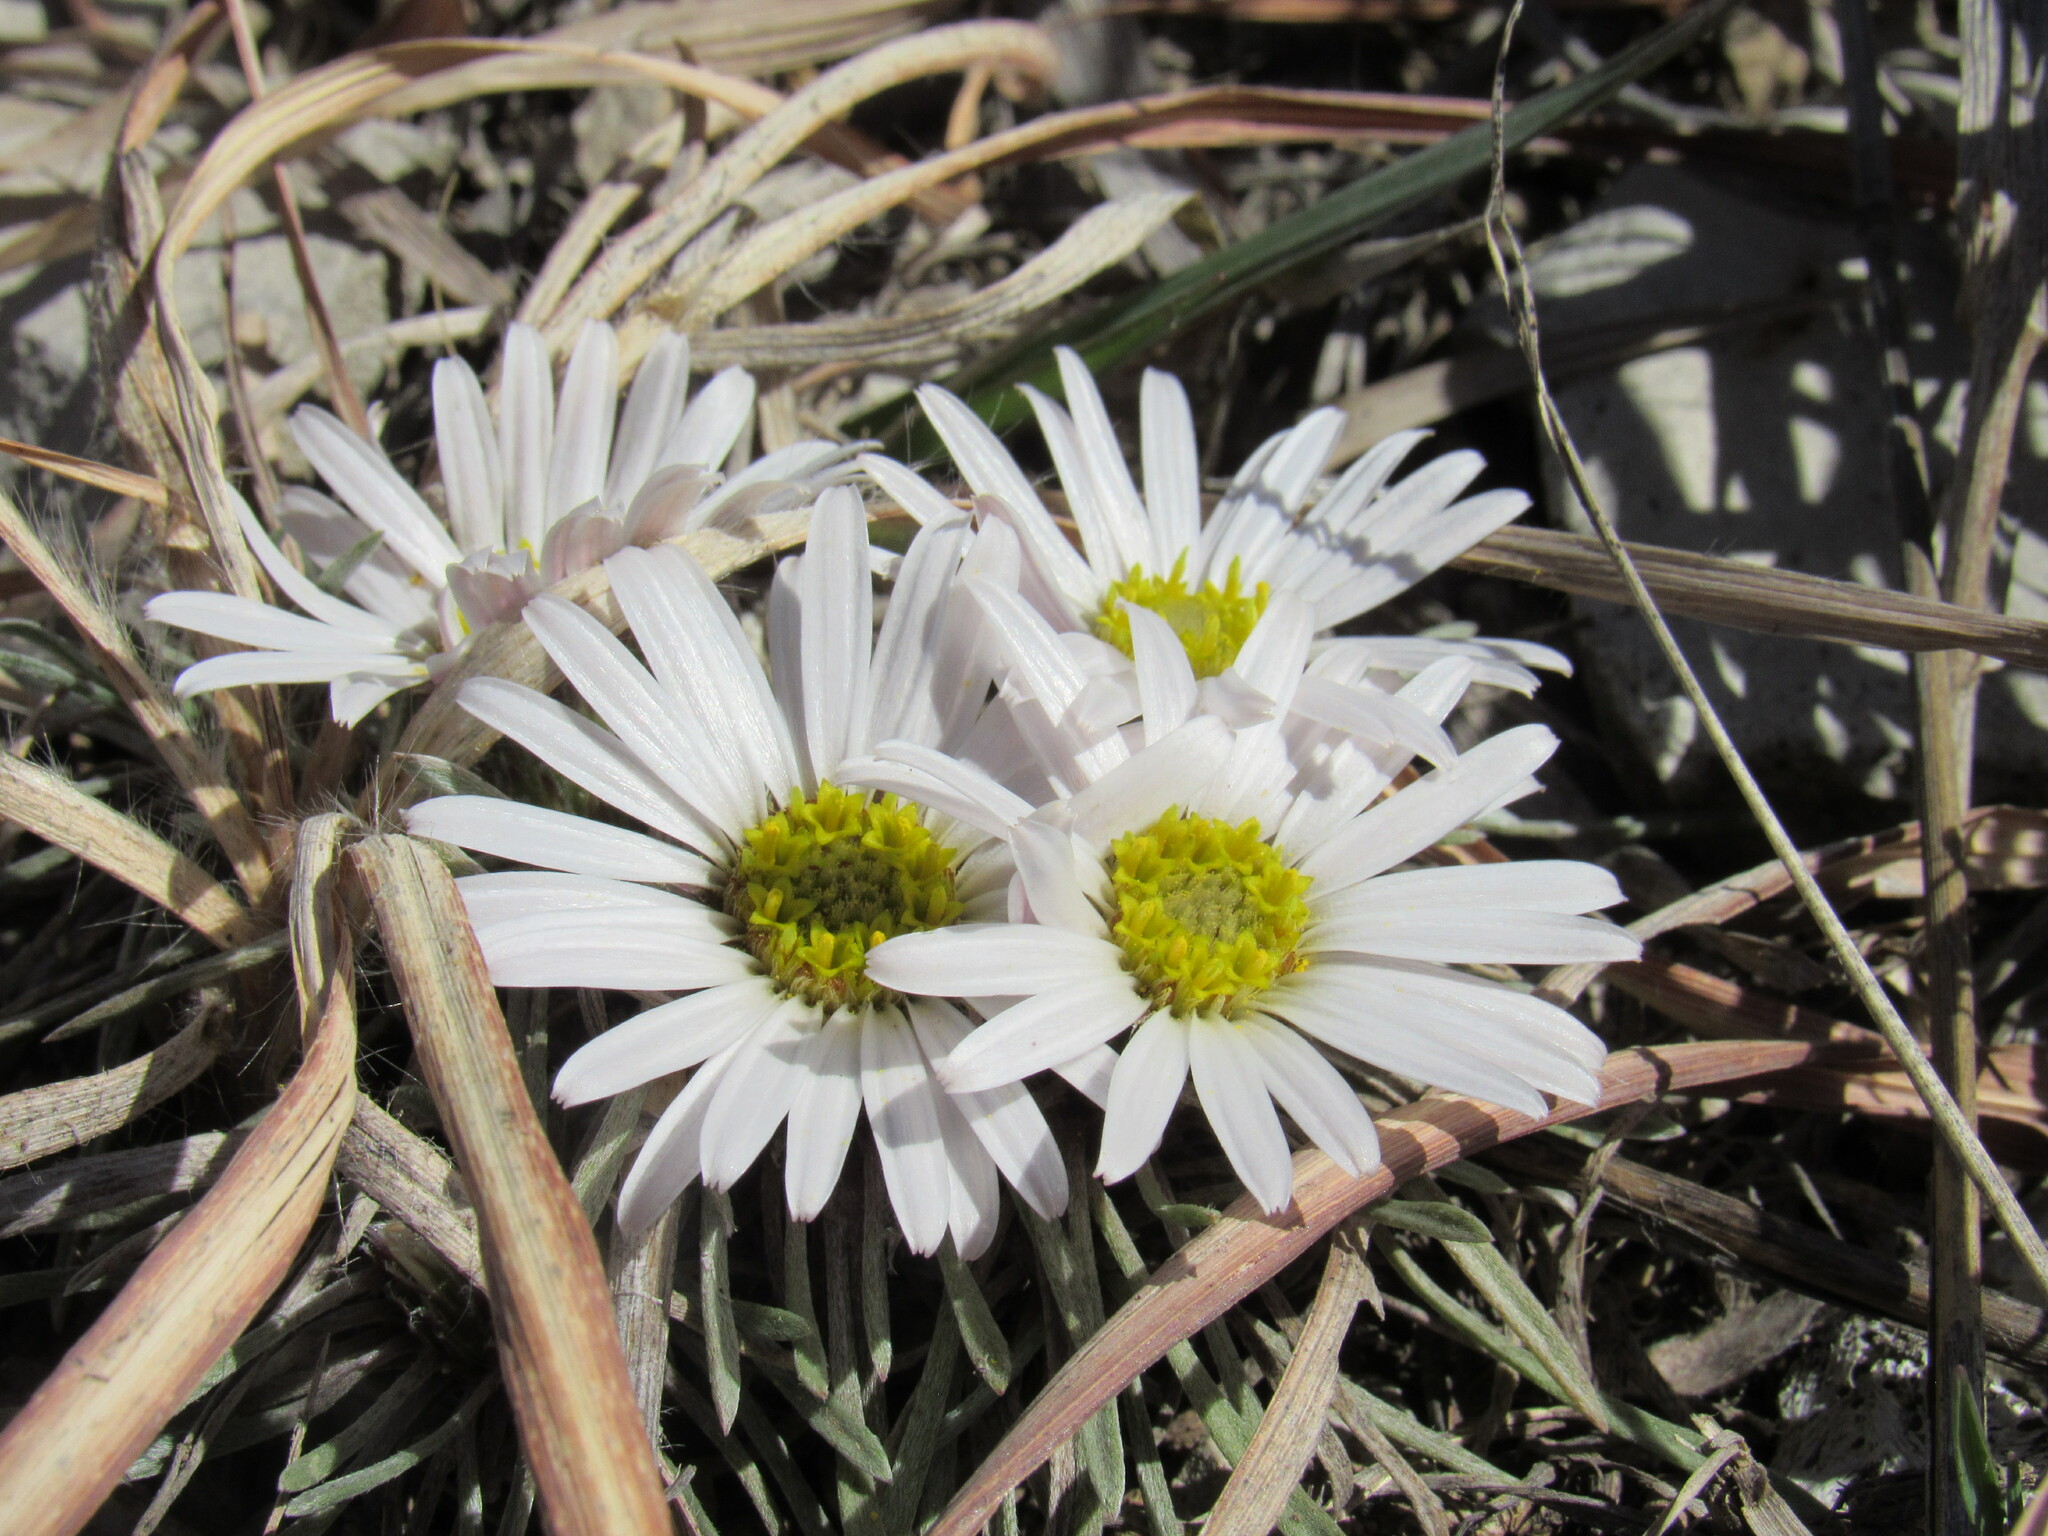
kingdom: Plantae
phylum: Tracheophyta
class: Magnoliopsida
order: Asterales
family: Asteraceae
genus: Townsendia
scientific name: Townsendia hookeri
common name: Hooker's townsend daisy
